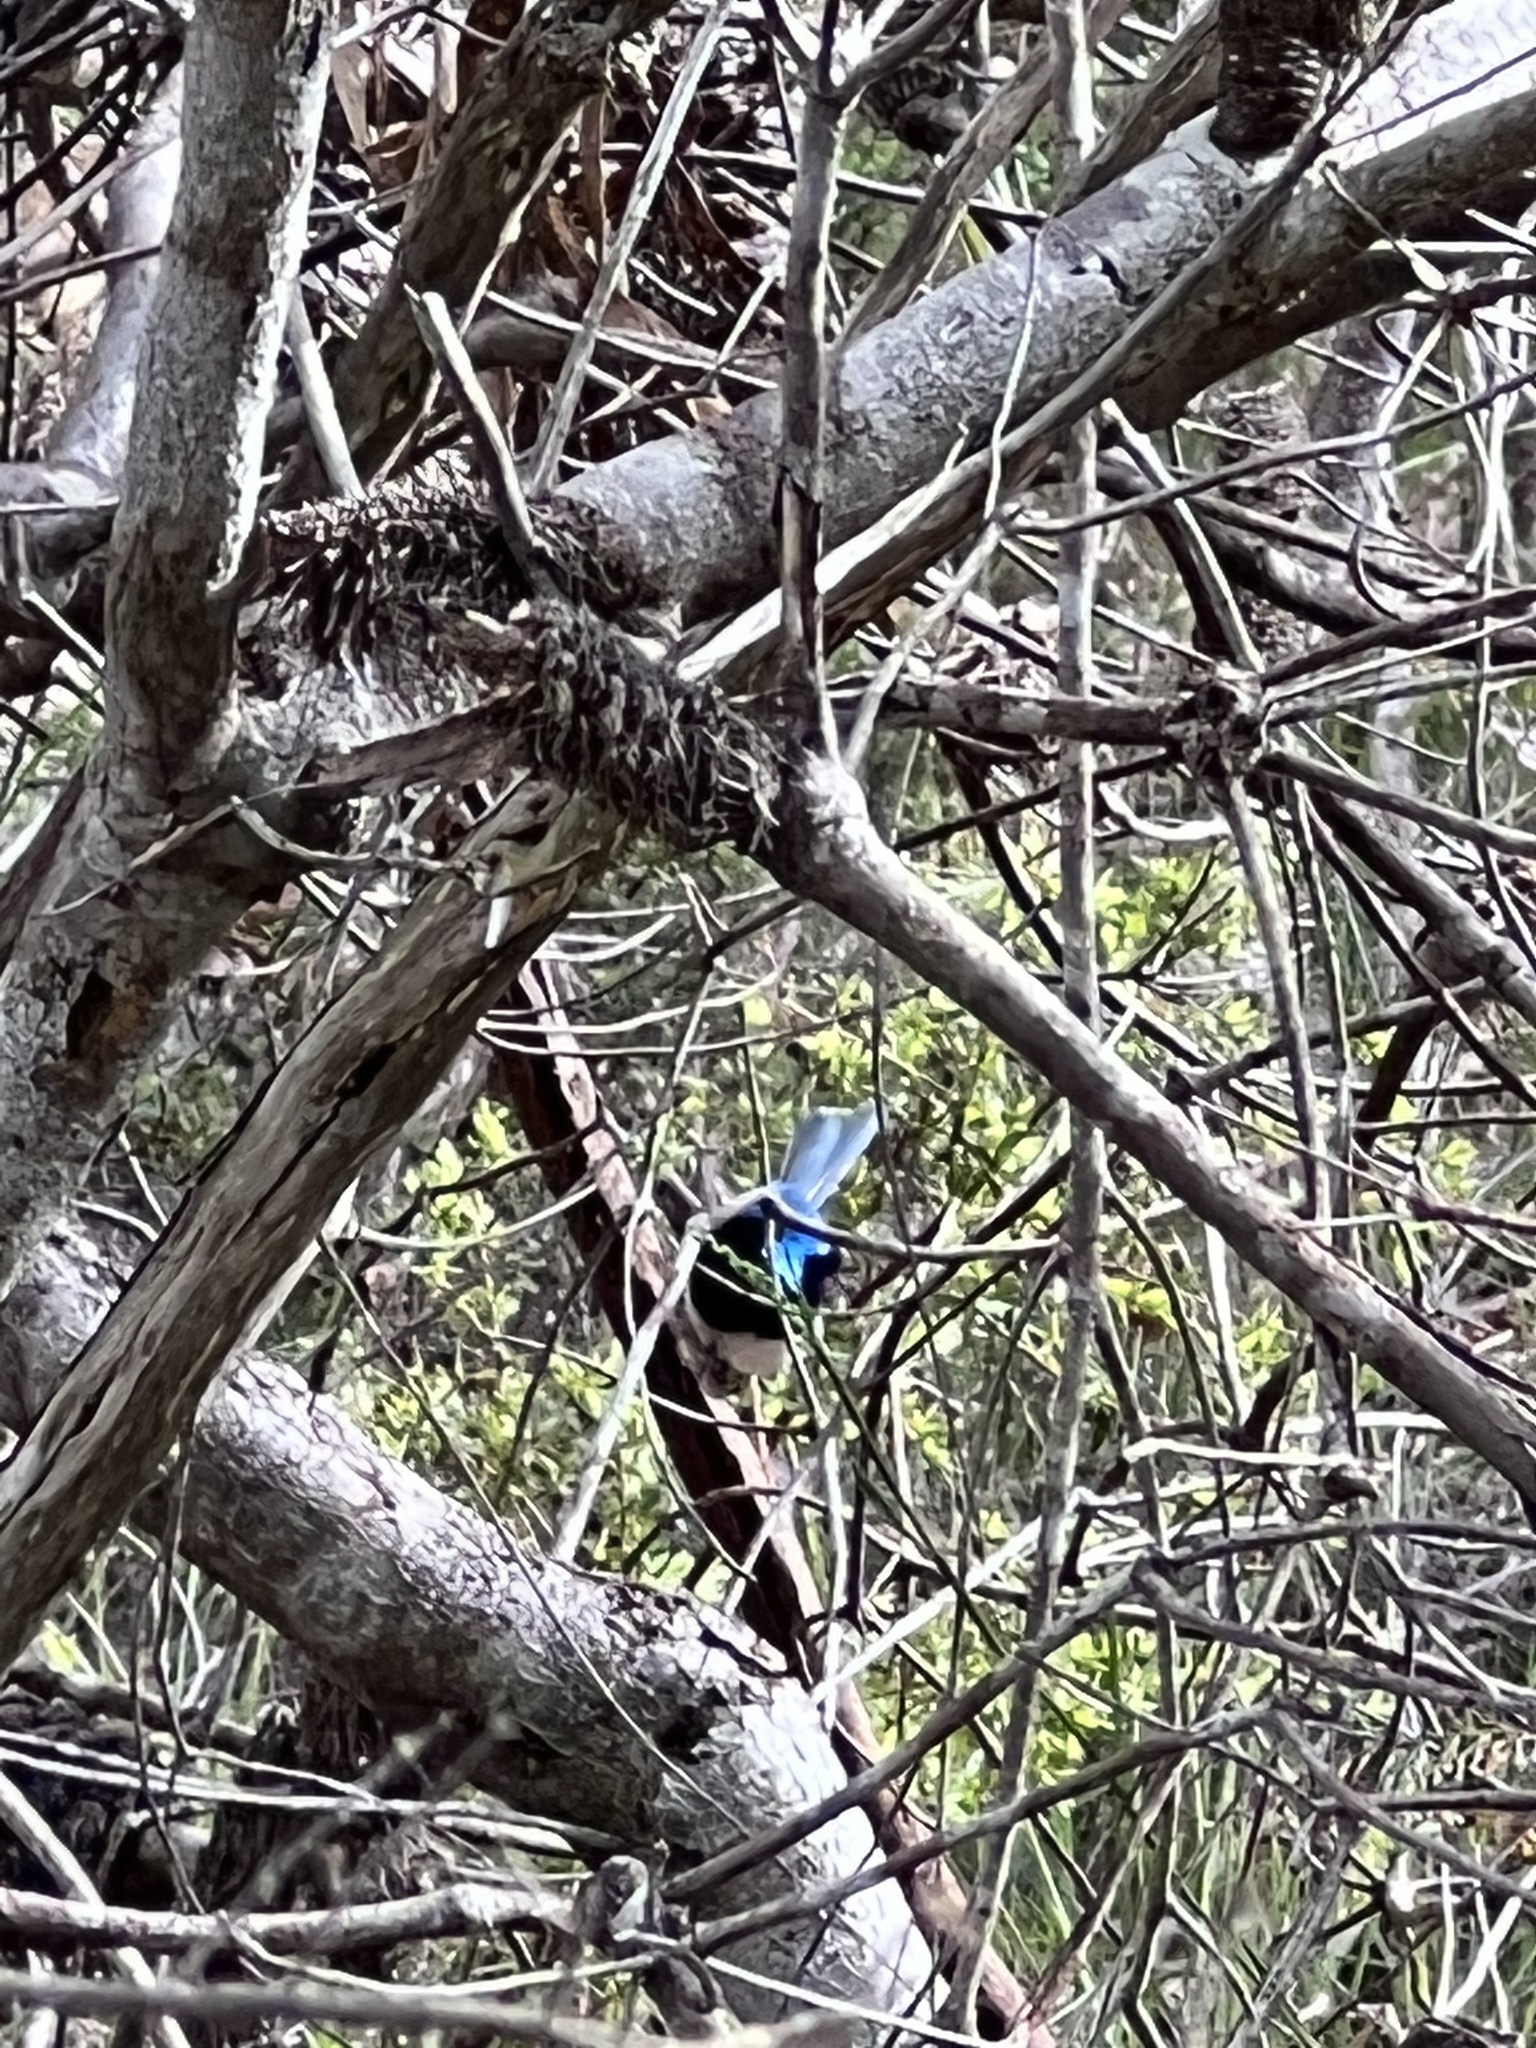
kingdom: Animalia
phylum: Chordata
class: Aves
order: Passeriformes
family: Maluridae
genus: Malurus
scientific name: Malurus cyaneus
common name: Superb fairywren
